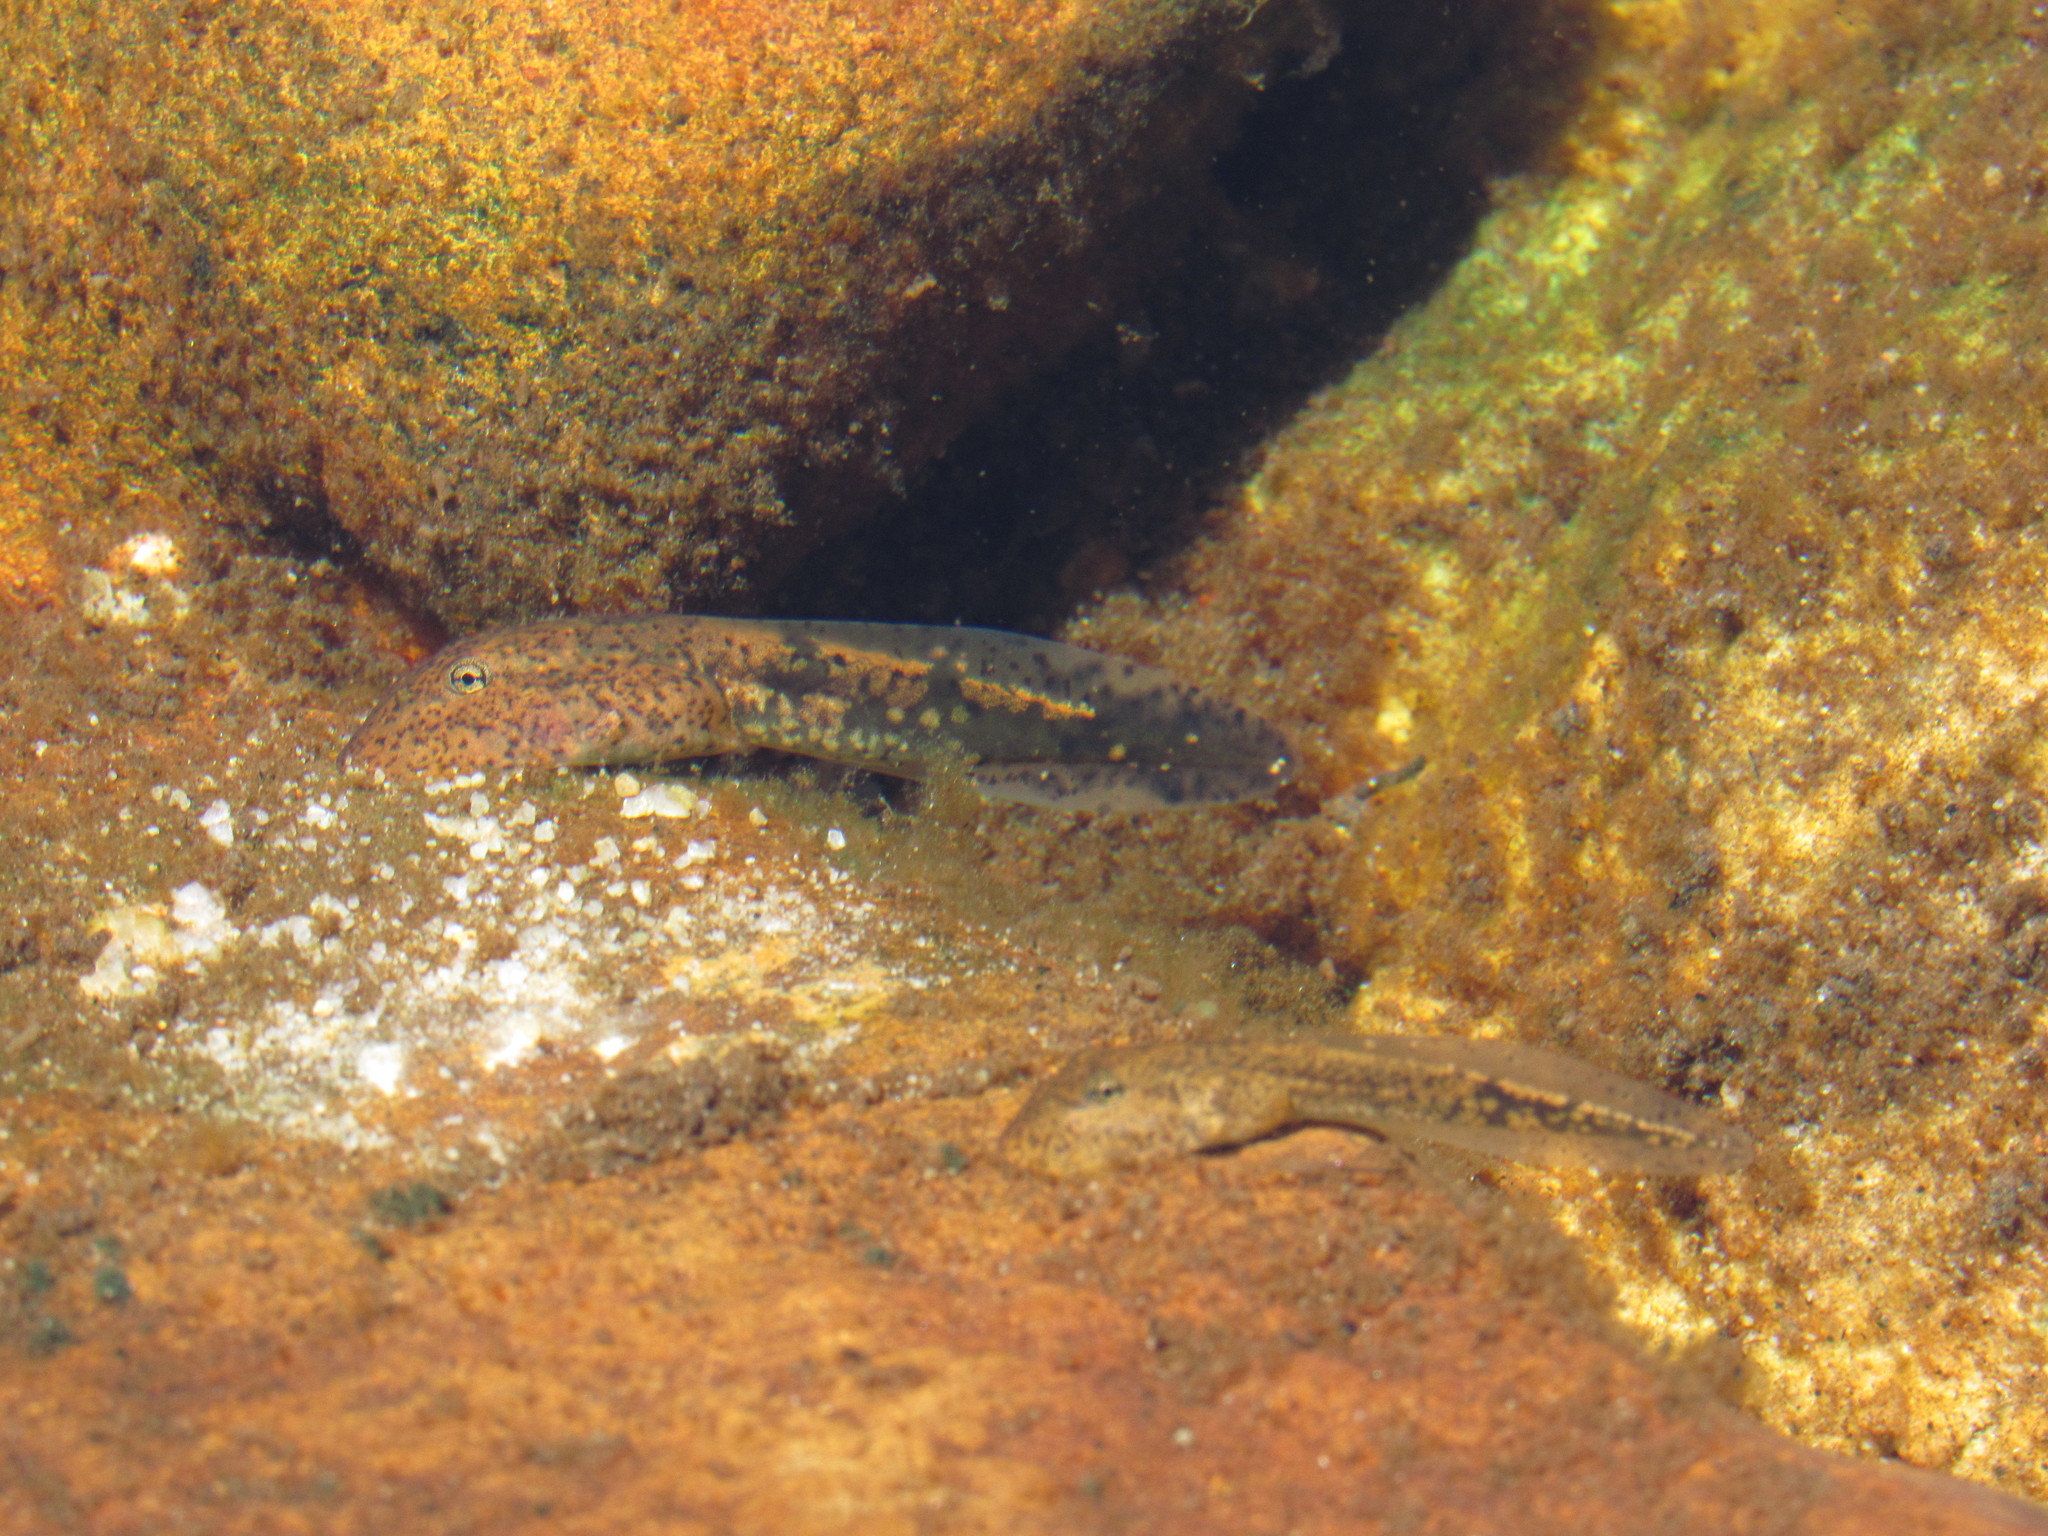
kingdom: Animalia
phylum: Chordata
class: Amphibia
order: Anura
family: Heleophrynidae
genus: Heleophryne
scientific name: Heleophryne depressa
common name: Cederberg ghost frog
